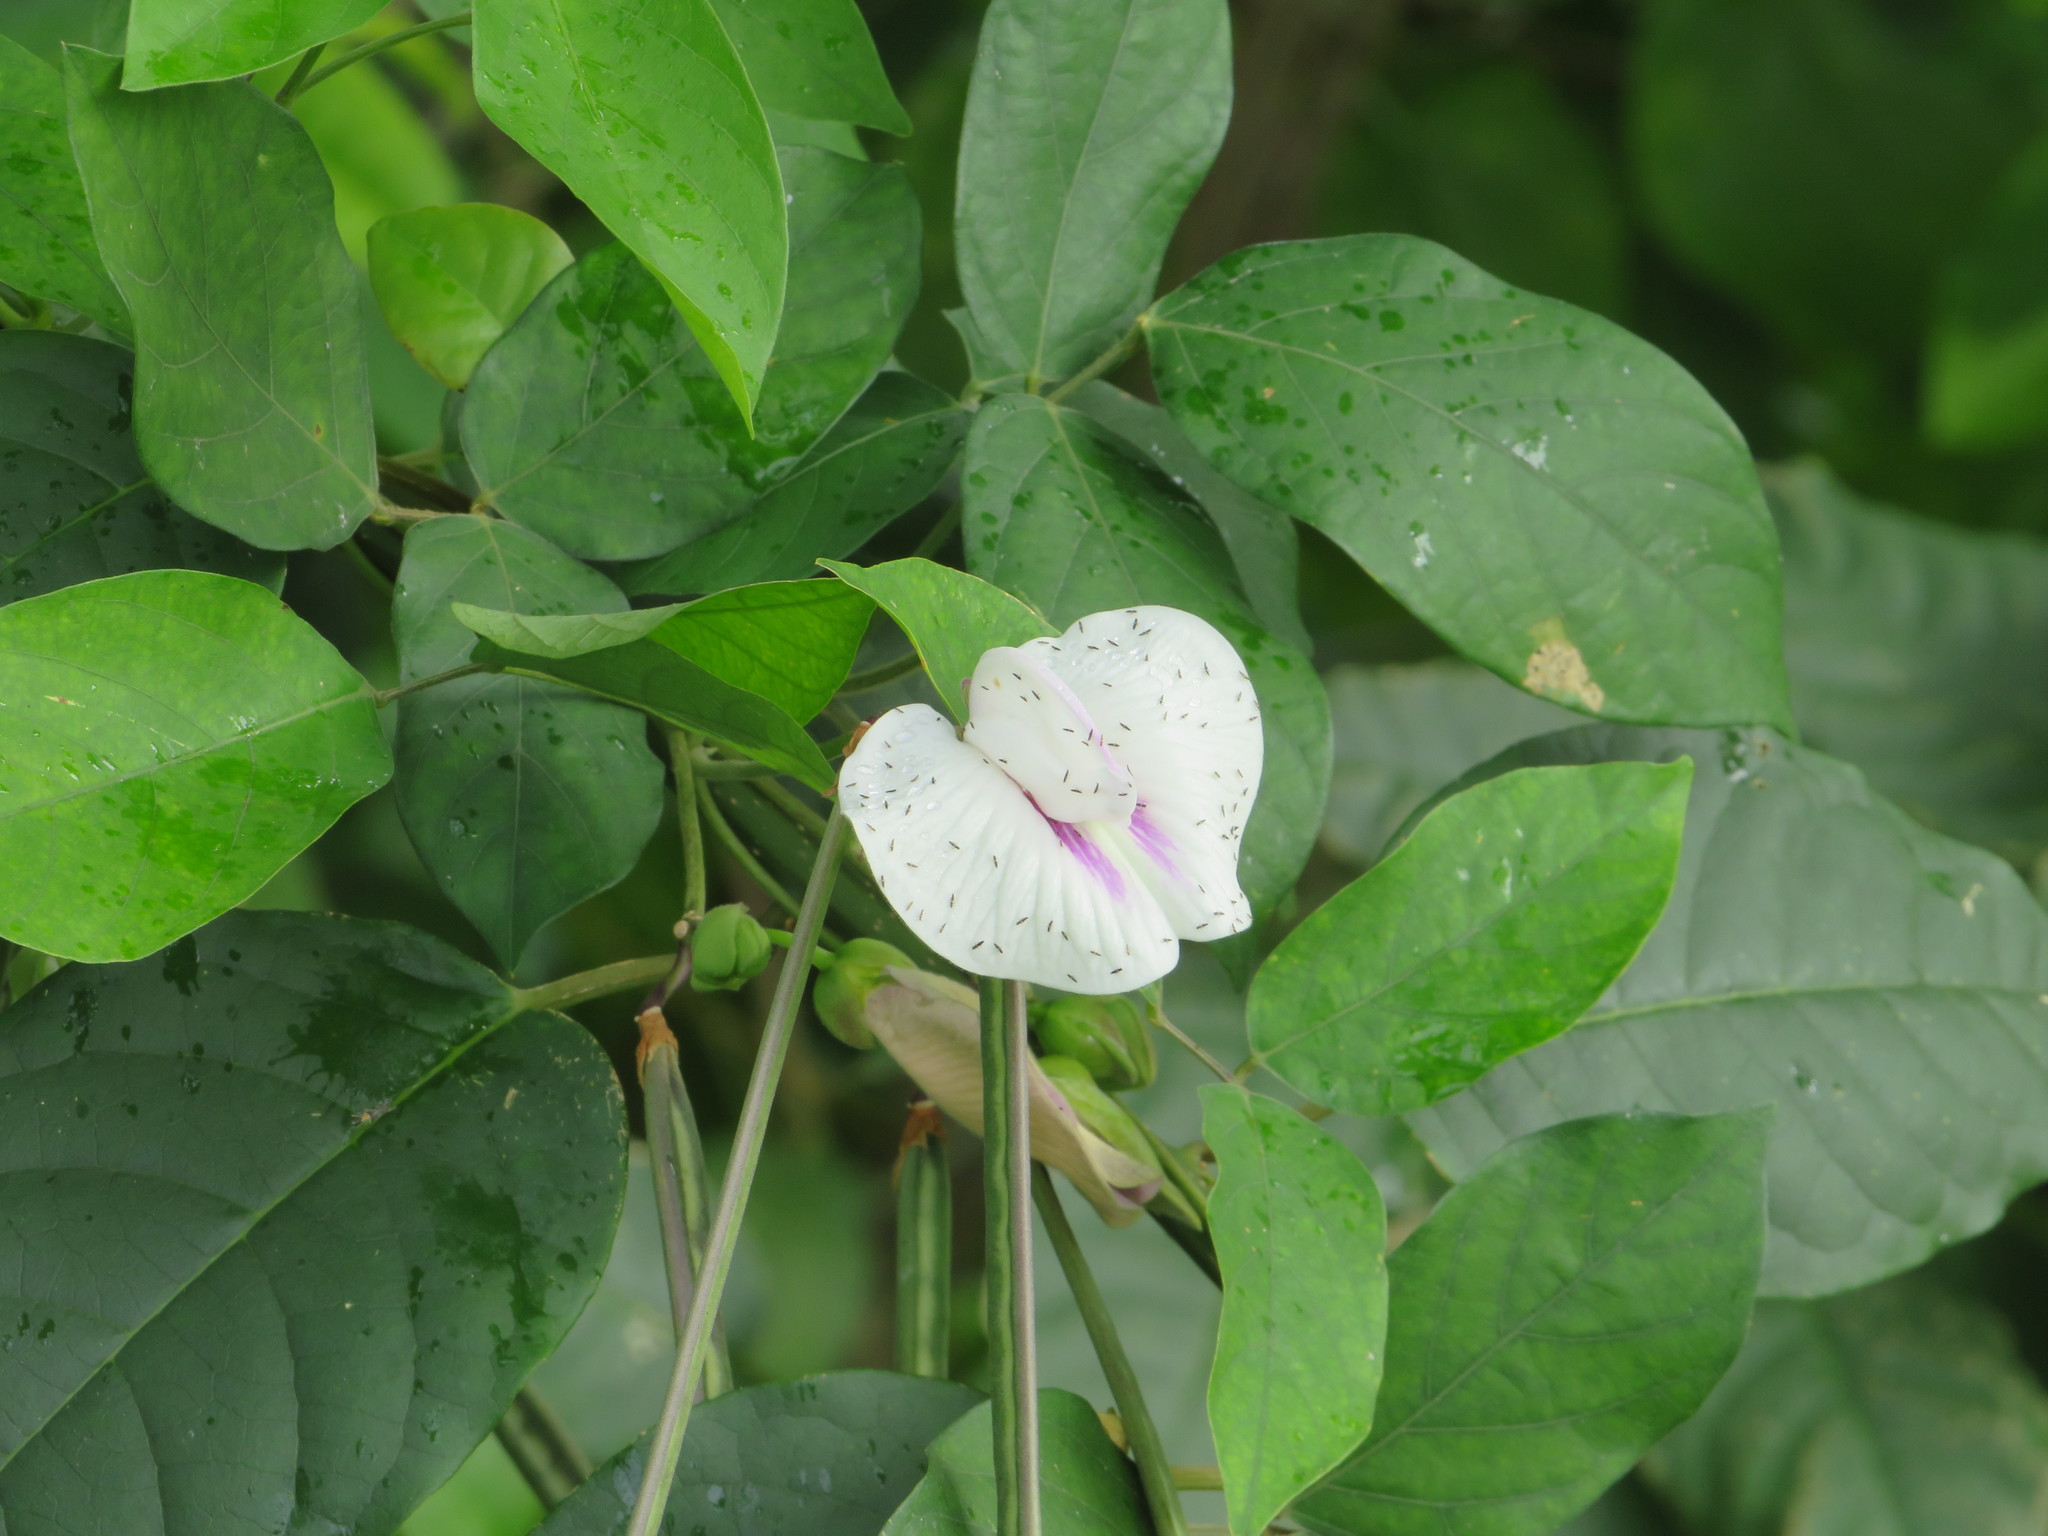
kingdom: Plantae
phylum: Tracheophyta
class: Magnoliopsida
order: Fabales
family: Fabaceae
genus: Centrosema
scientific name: Centrosema pubescens
